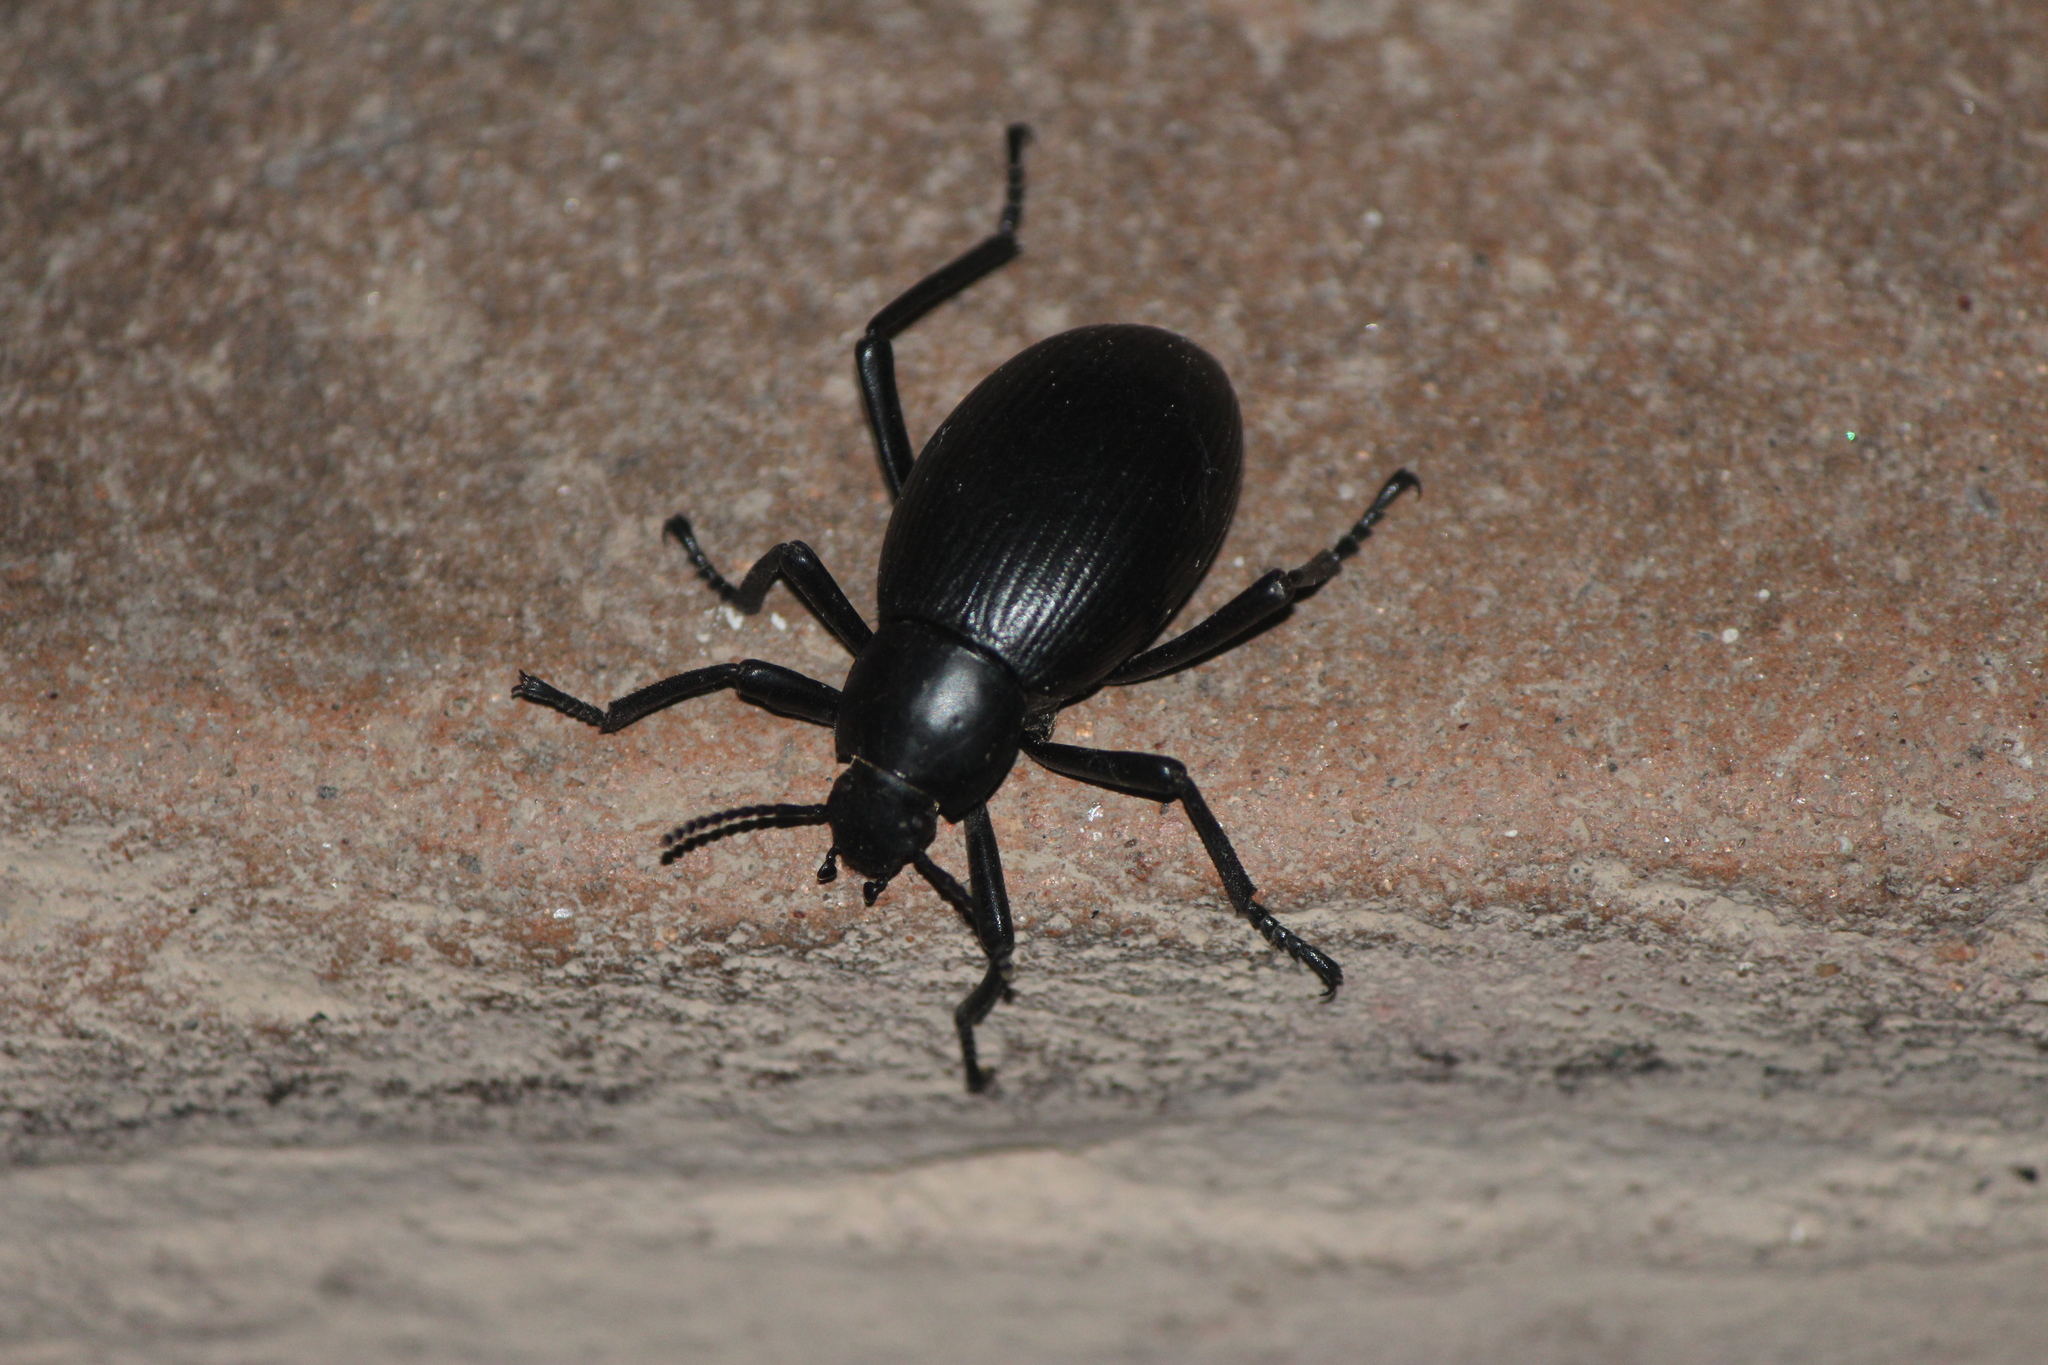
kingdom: Animalia
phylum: Arthropoda
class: Insecta
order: Coleoptera
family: Tenebrionidae
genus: Eleodes
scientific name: Eleodes spinipes
